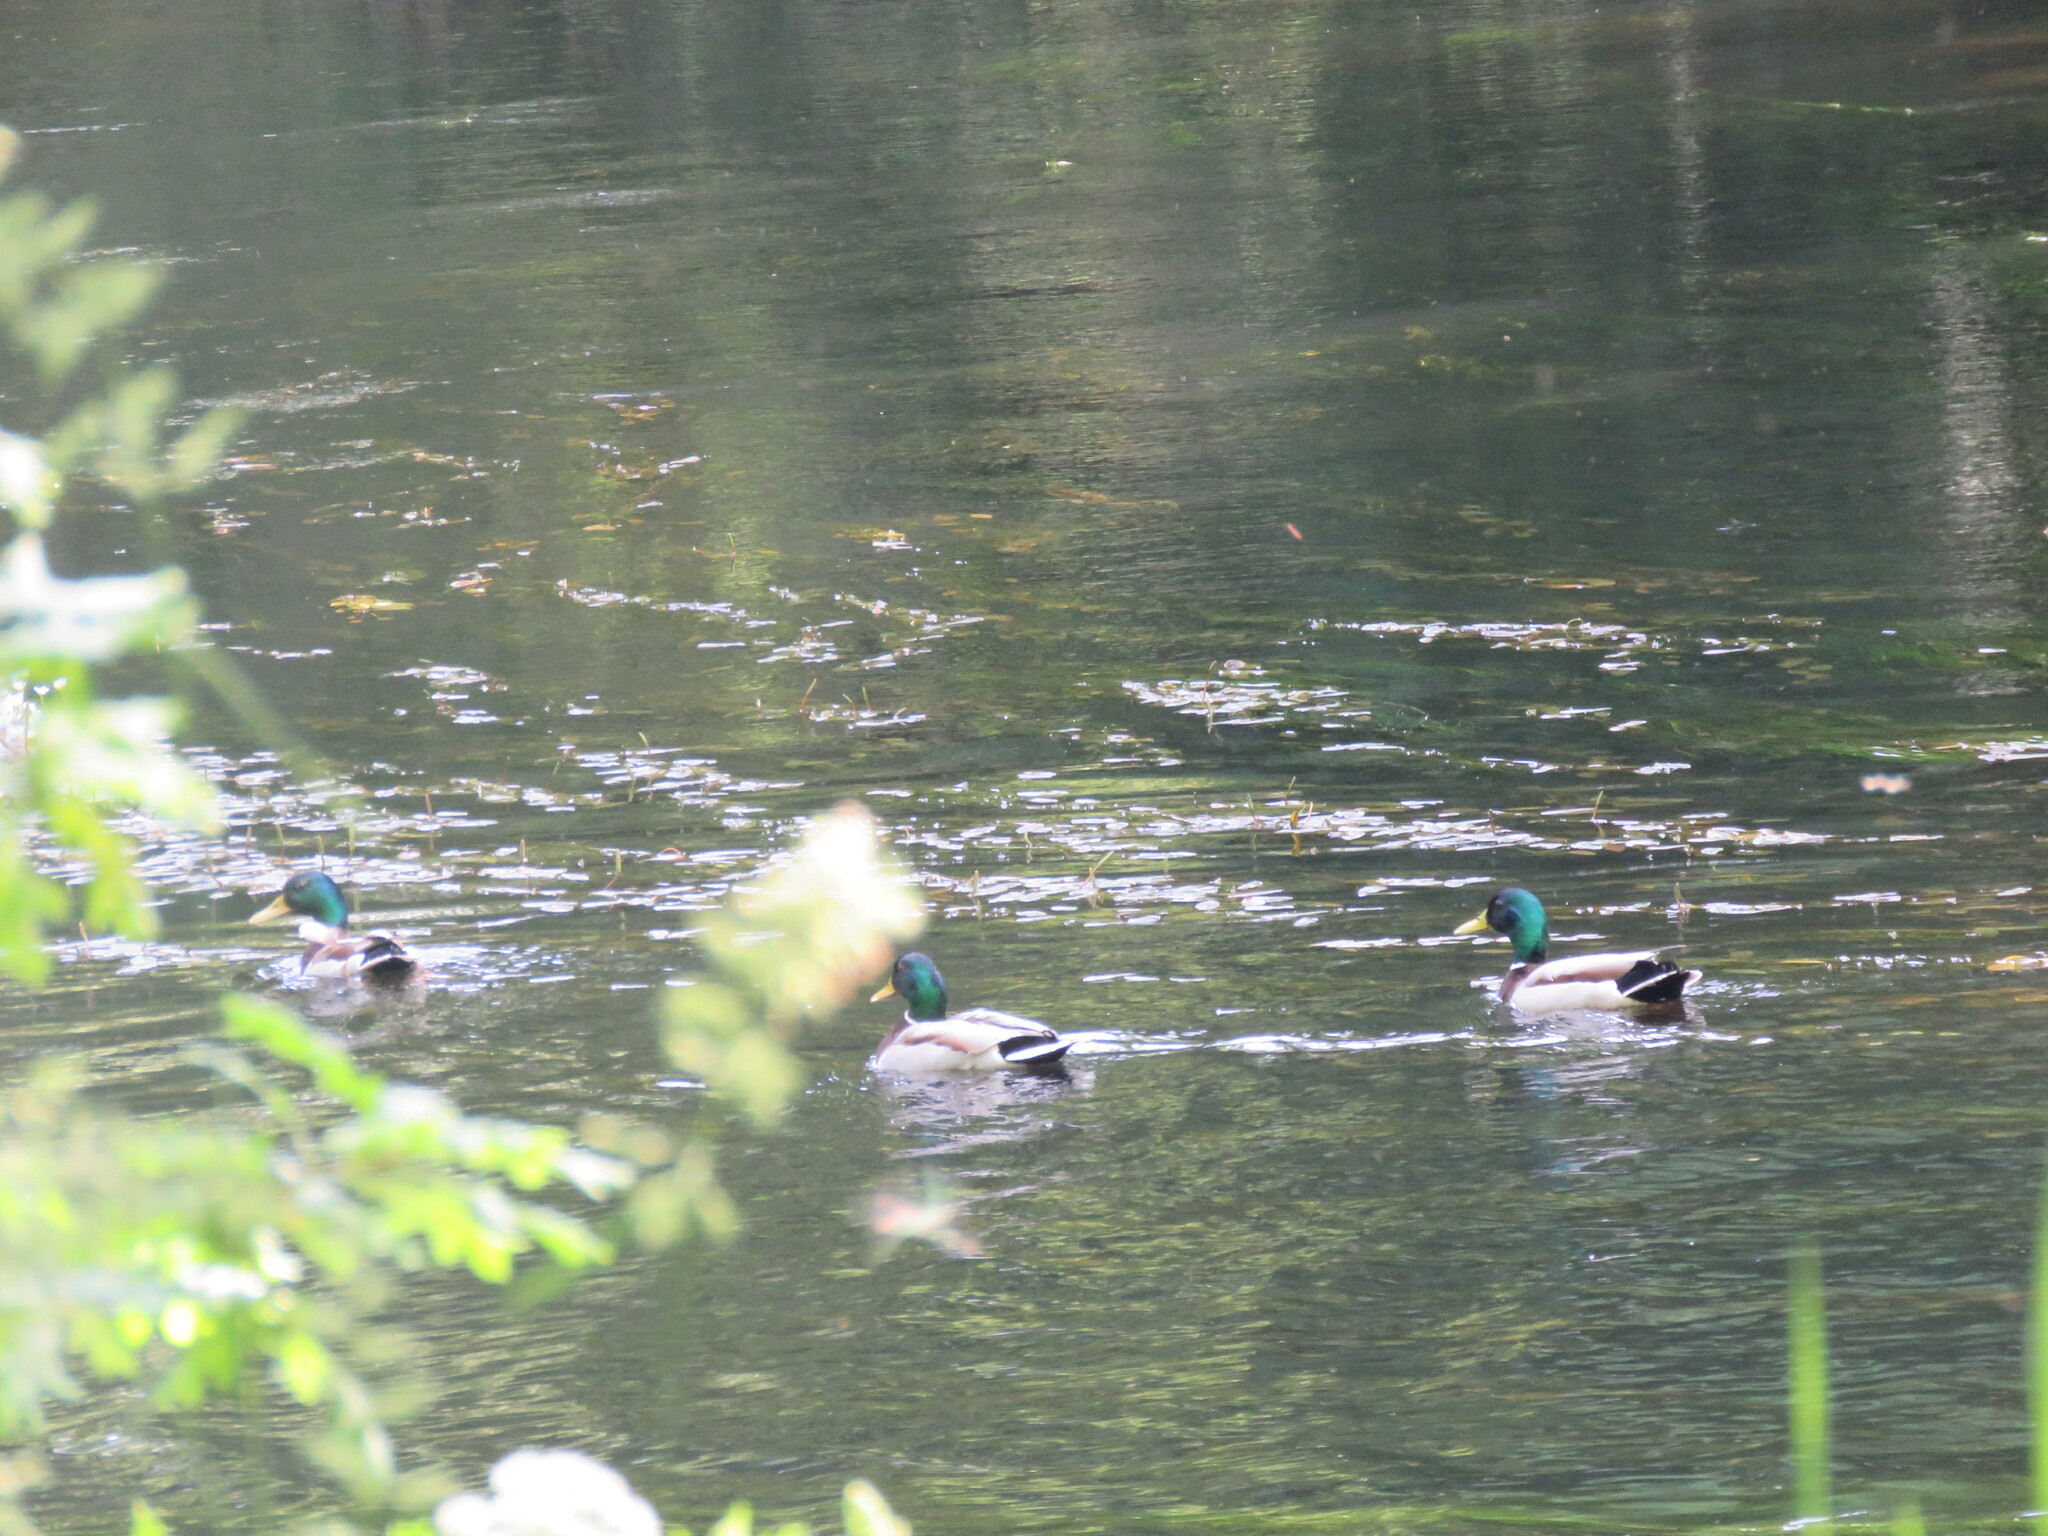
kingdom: Animalia
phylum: Chordata
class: Aves
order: Anseriformes
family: Anatidae
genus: Anas
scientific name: Anas platyrhynchos
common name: Mallard
